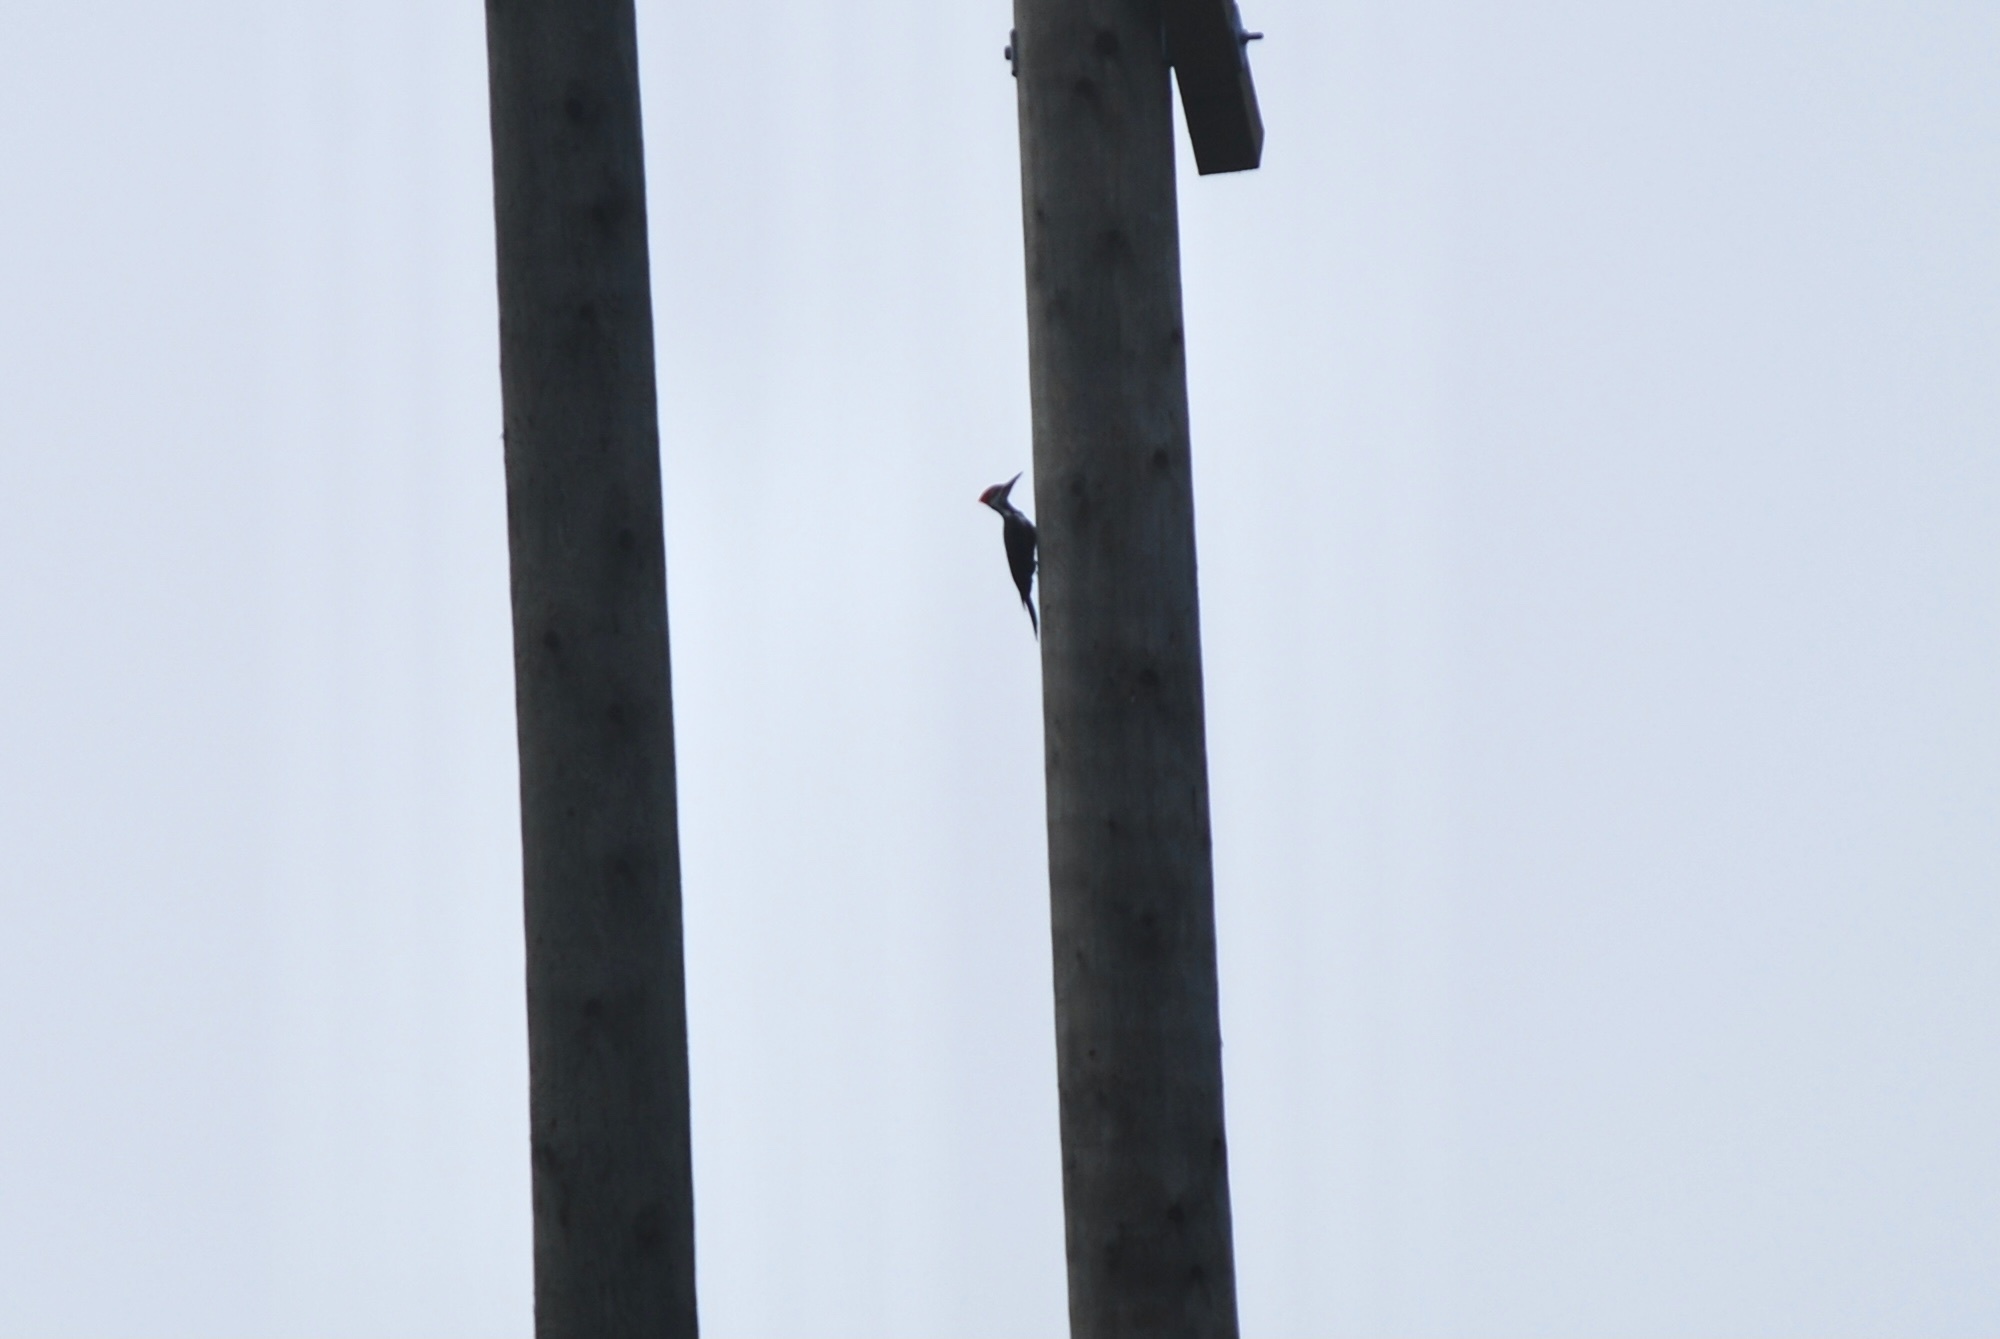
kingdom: Animalia
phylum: Chordata
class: Aves
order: Piciformes
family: Picidae
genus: Dryocopus
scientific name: Dryocopus pileatus
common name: Pileated woodpecker
